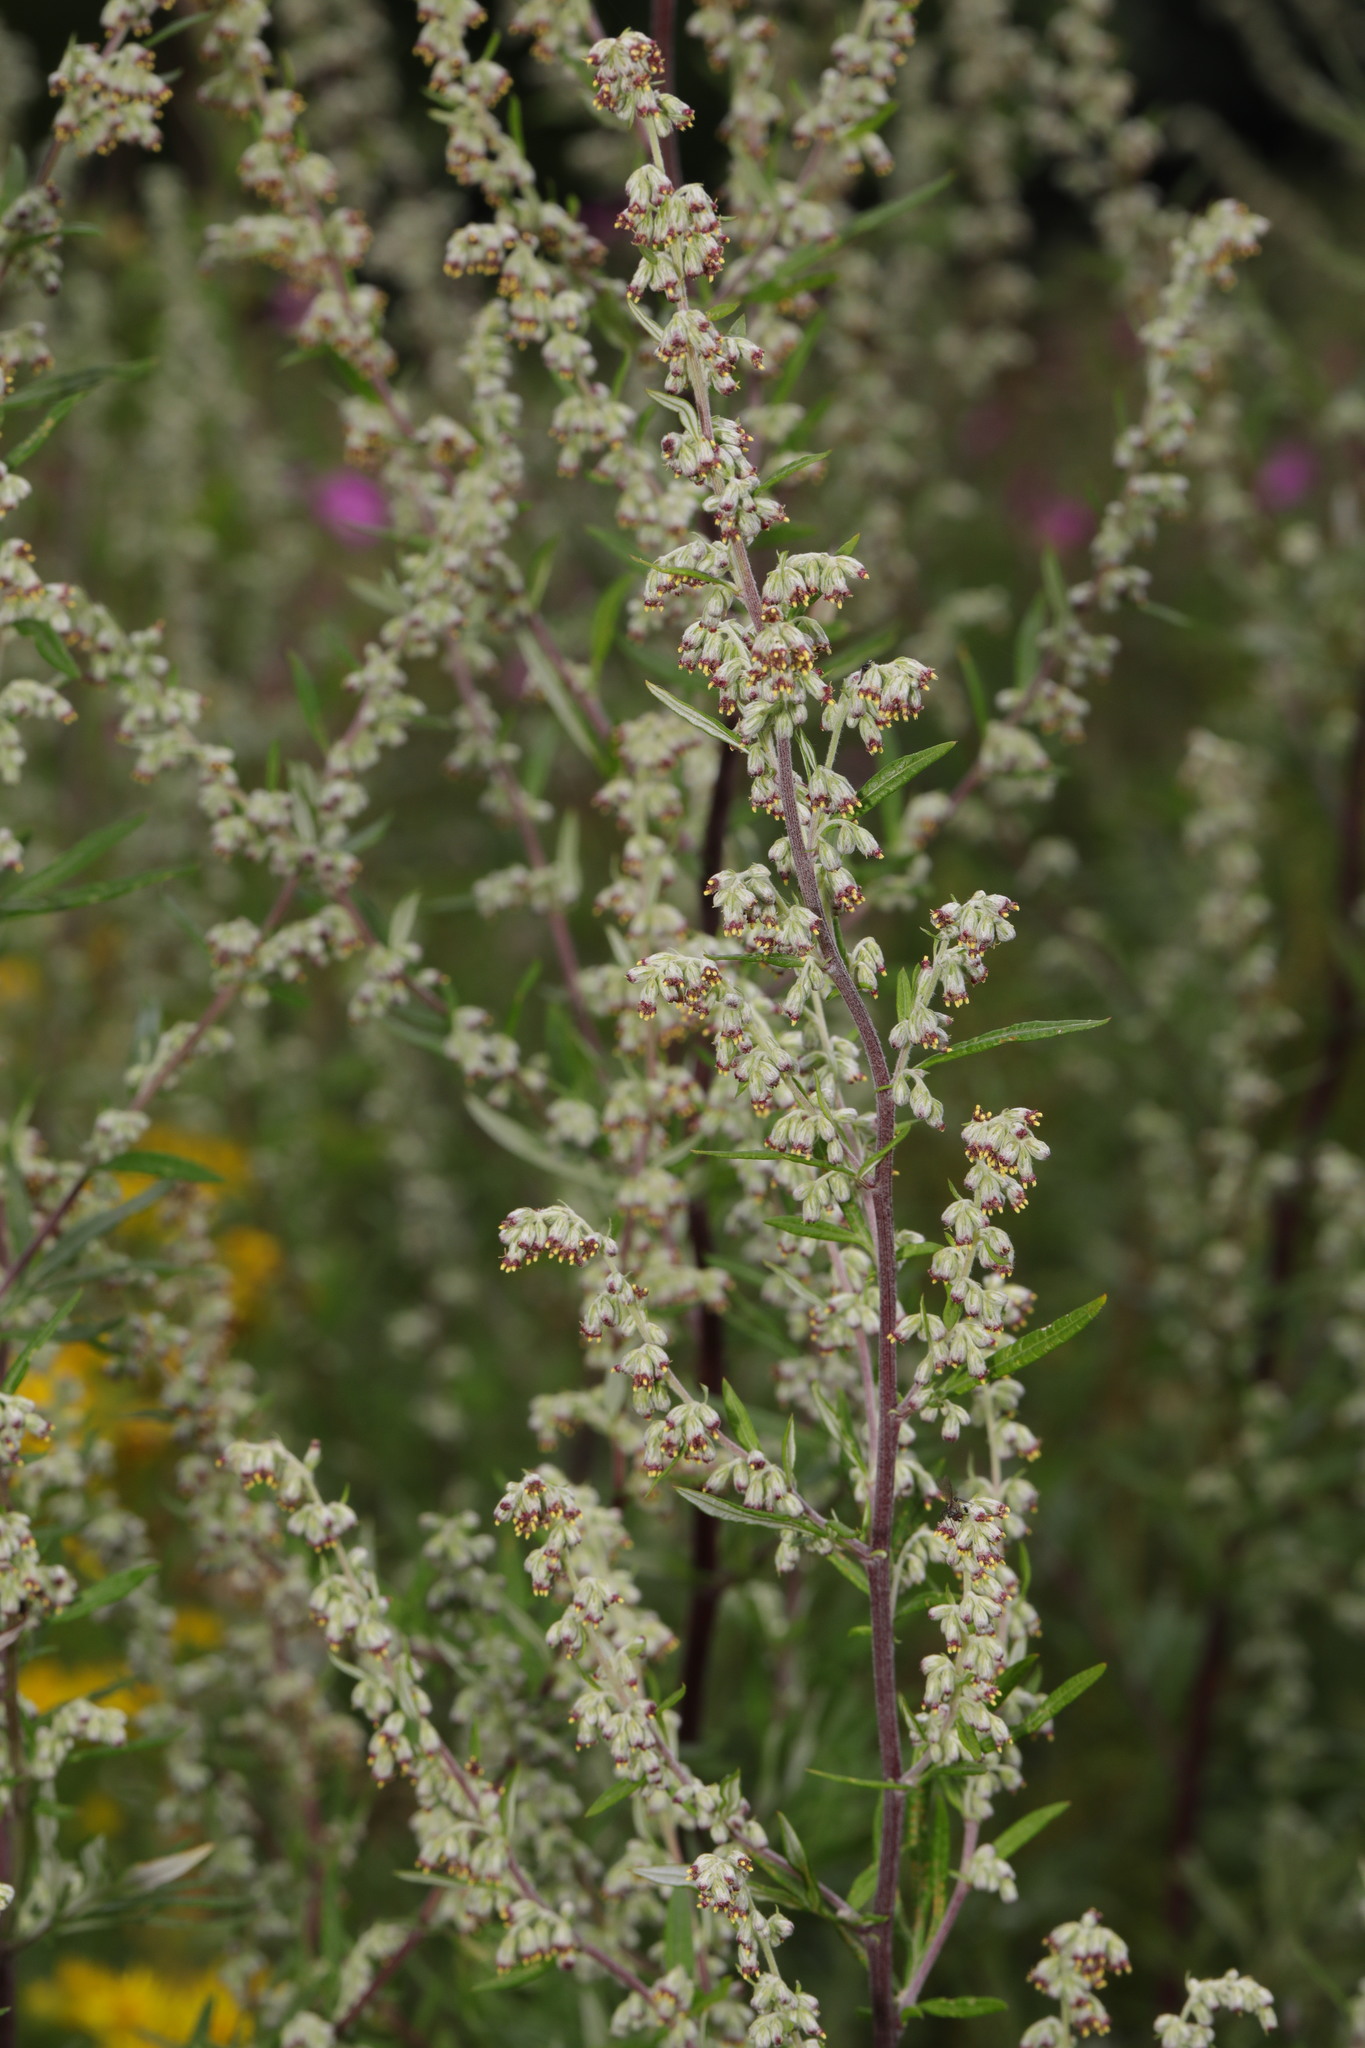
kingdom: Plantae
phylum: Tracheophyta
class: Magnoliopsida
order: Asterales
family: Asteraceae
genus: Artemisia
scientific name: Artemisia vulgaris
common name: Mugwort
